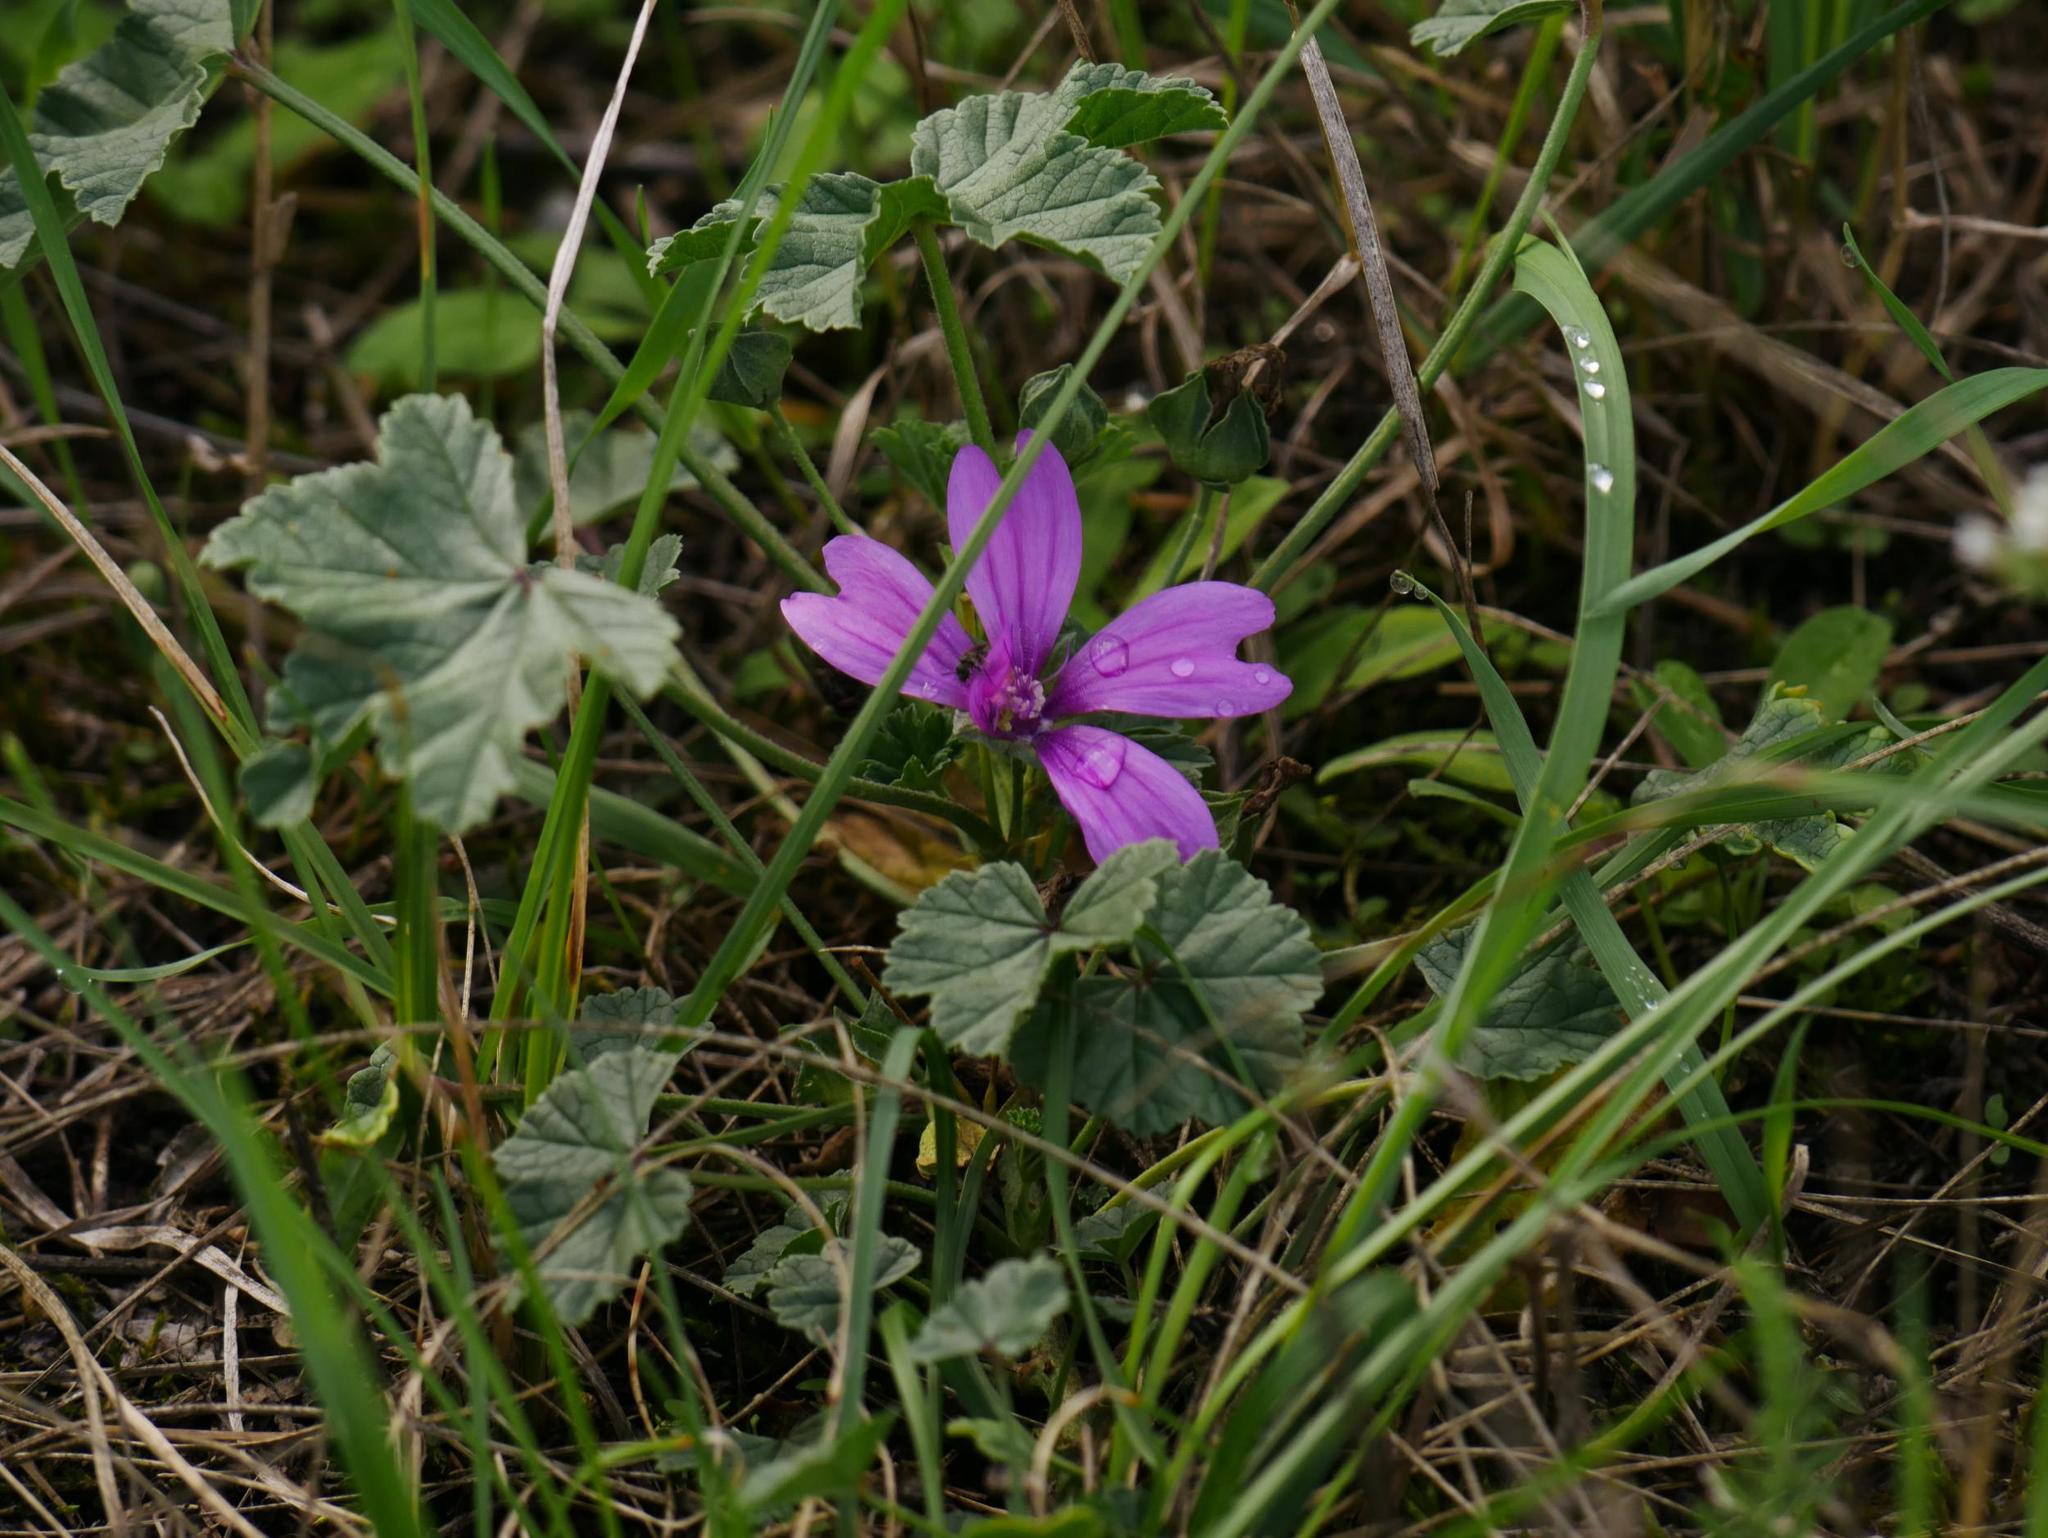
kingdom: Plantae
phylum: Tracheophyta
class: Magnoliopsida
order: Malvales
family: Malvaceae
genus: Malva
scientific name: Malva sylvestris
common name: Common mallow
